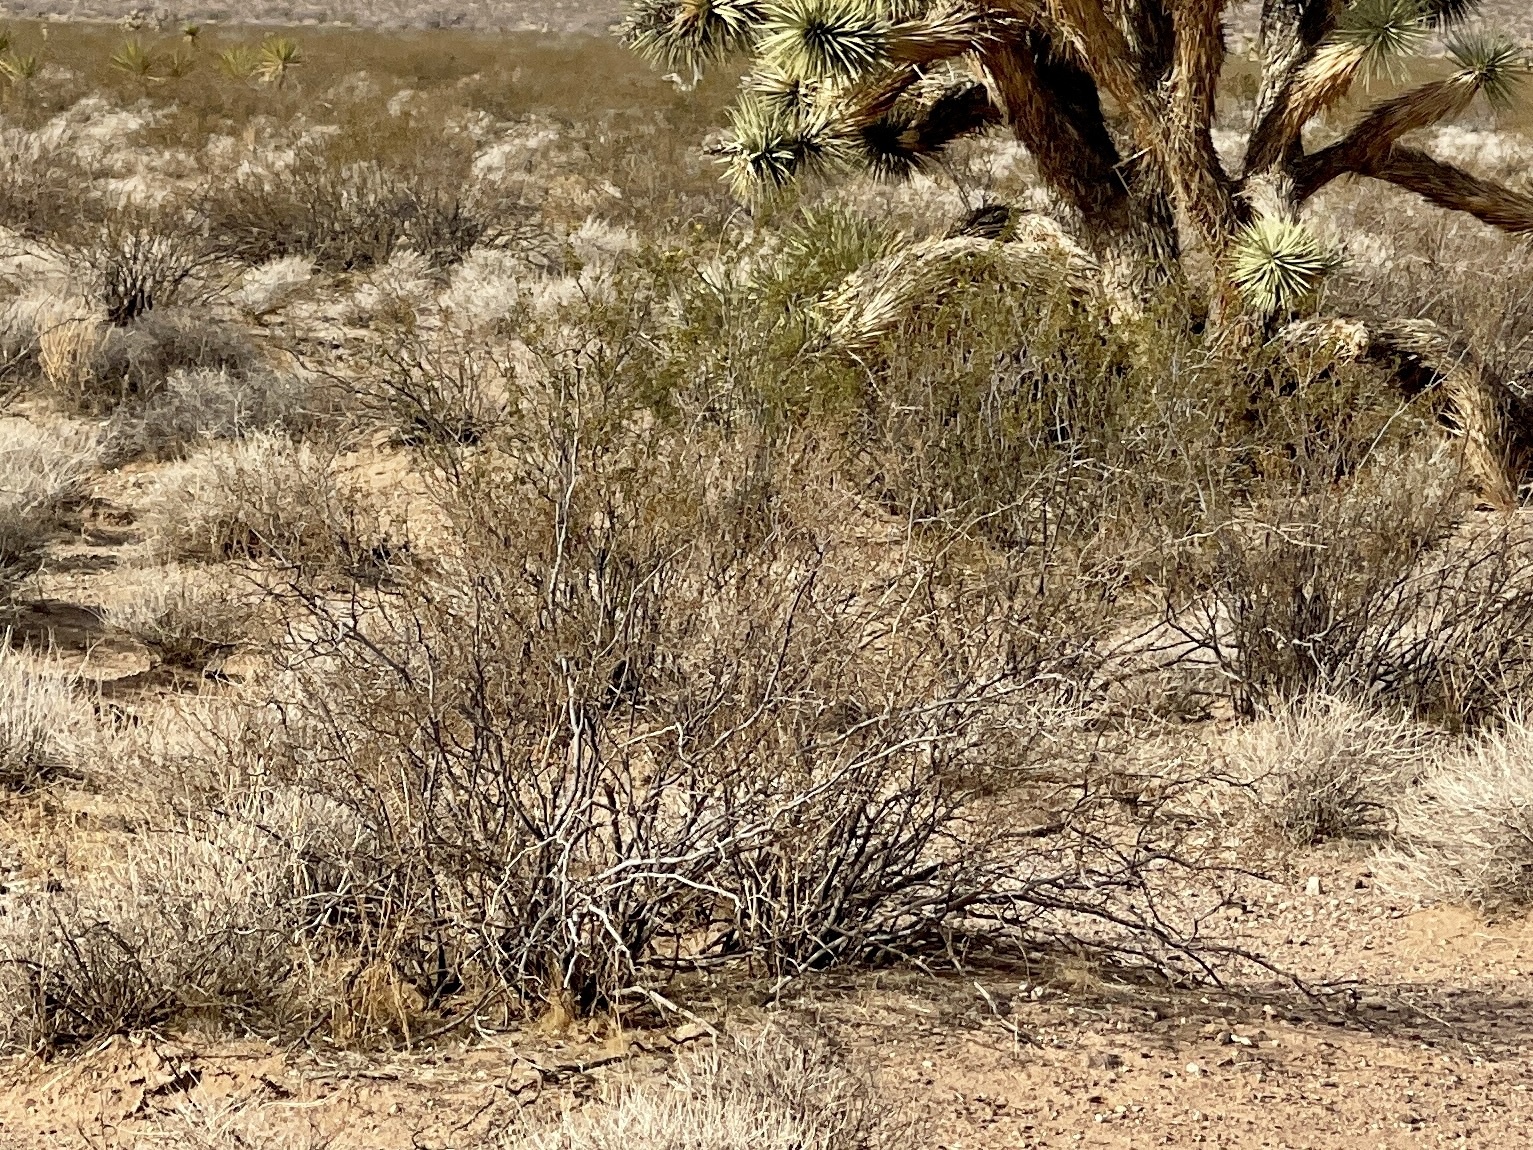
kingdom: Plantae
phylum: Tracheophyta
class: Magnoliopsida
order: Zygophyllales
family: Zygophyllaceae
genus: Larrea
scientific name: Larrea tridentata
